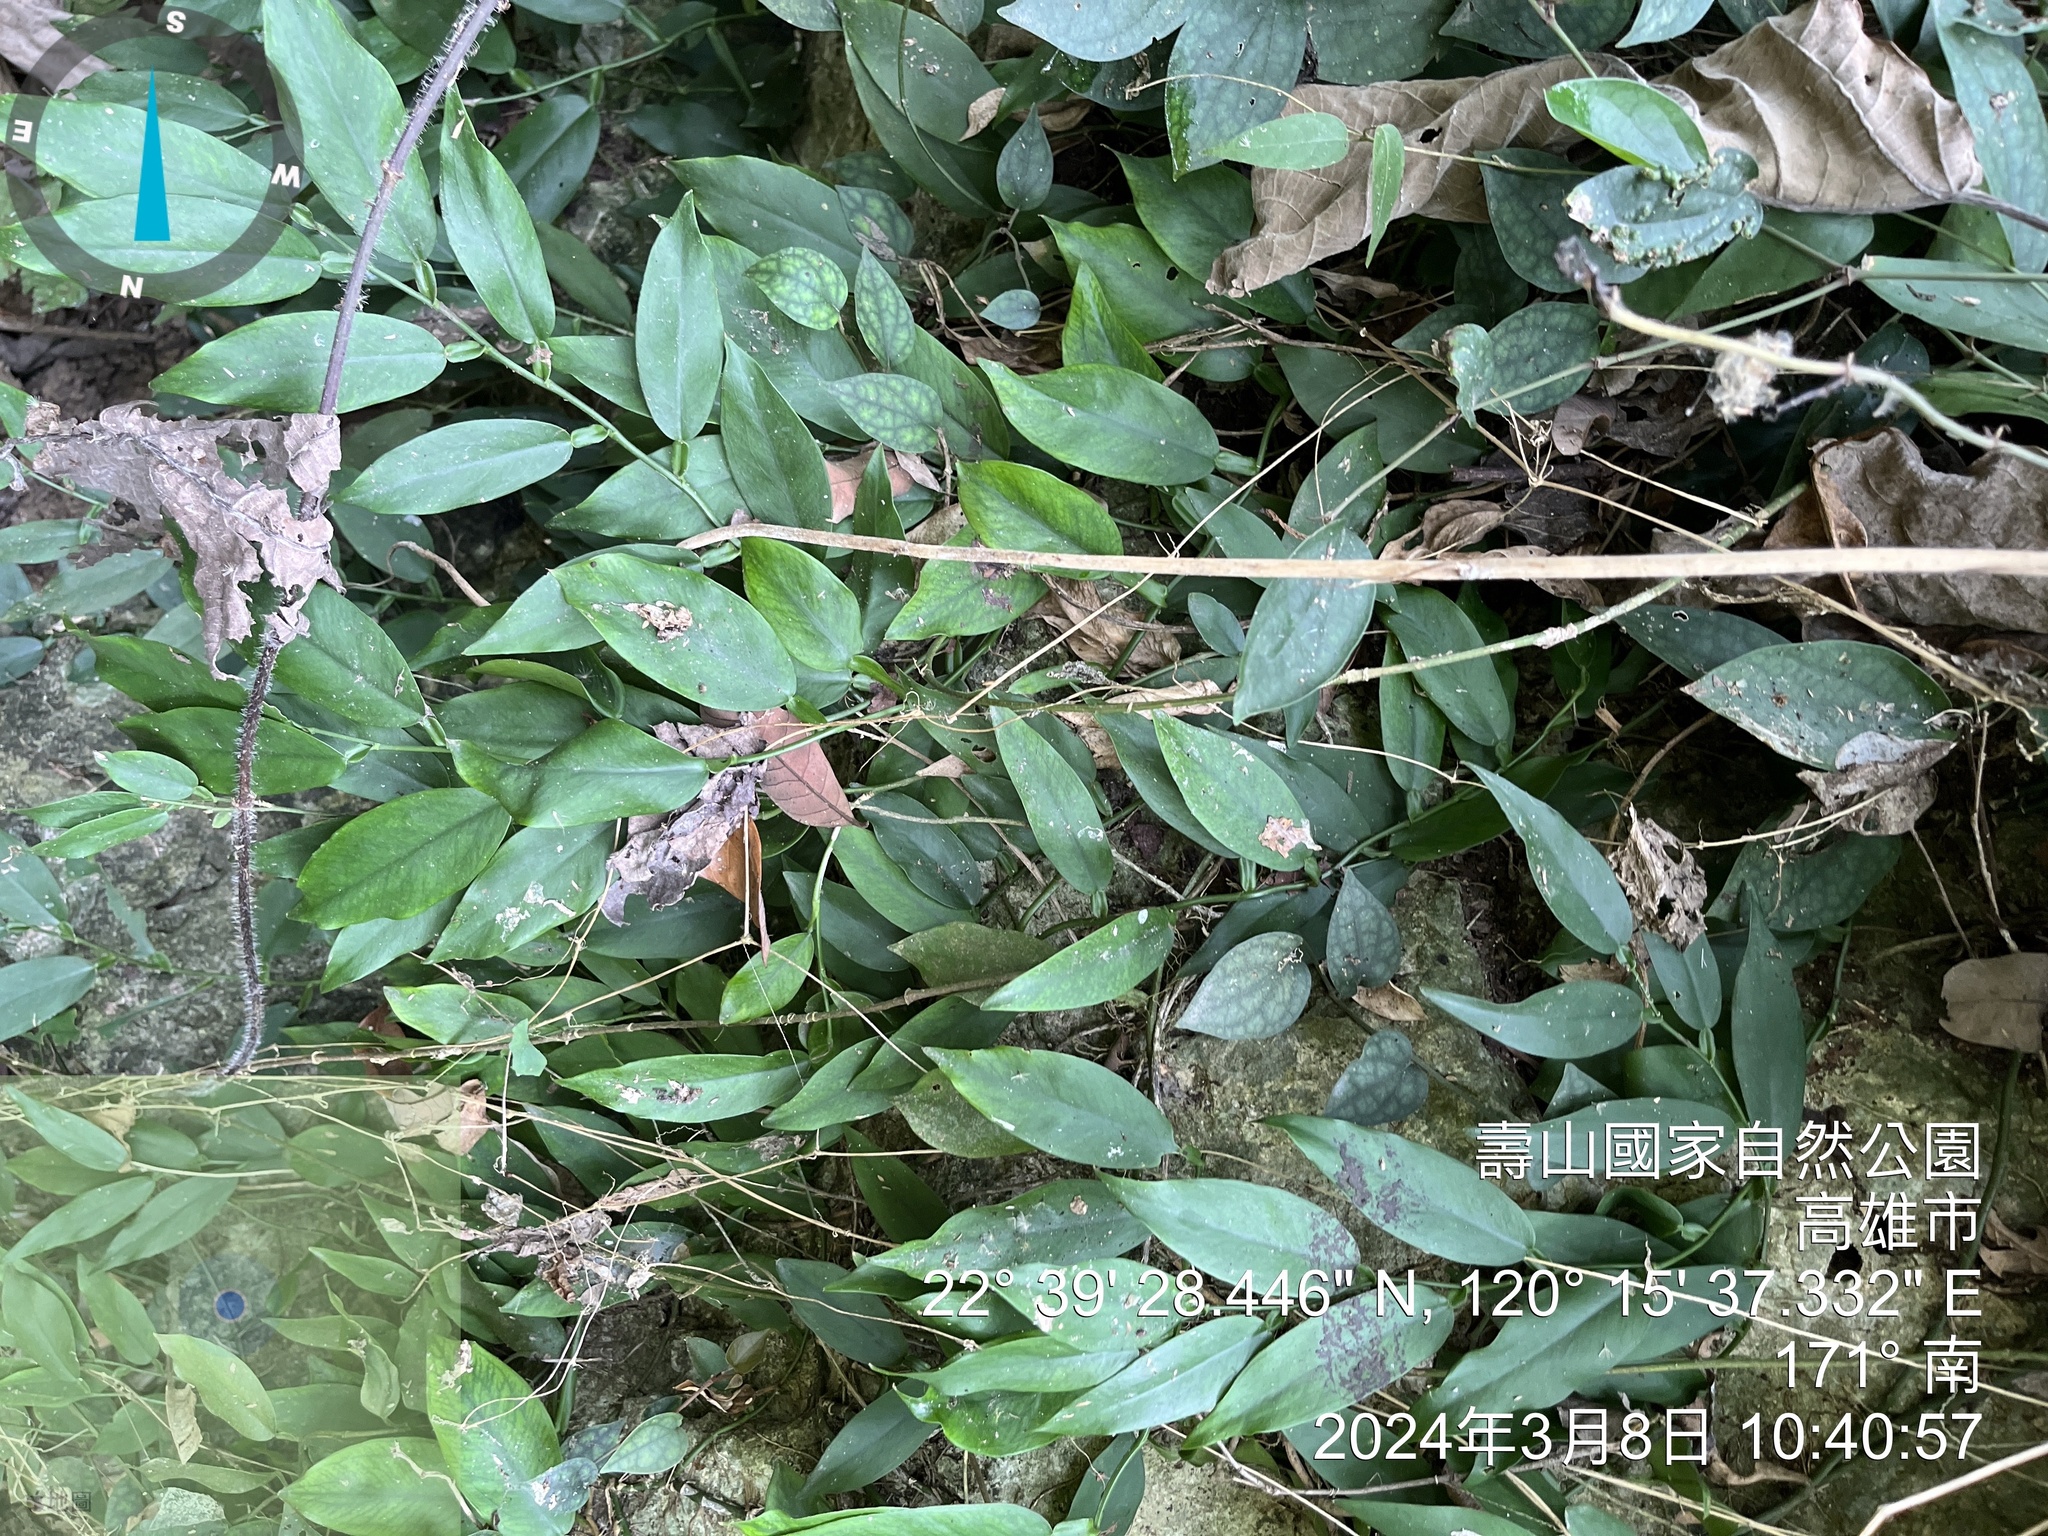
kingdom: Plantae
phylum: Tracheophyta
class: Liliopsida
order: Alismatales
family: Araceae
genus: Pothos
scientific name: Pothos chinensis
